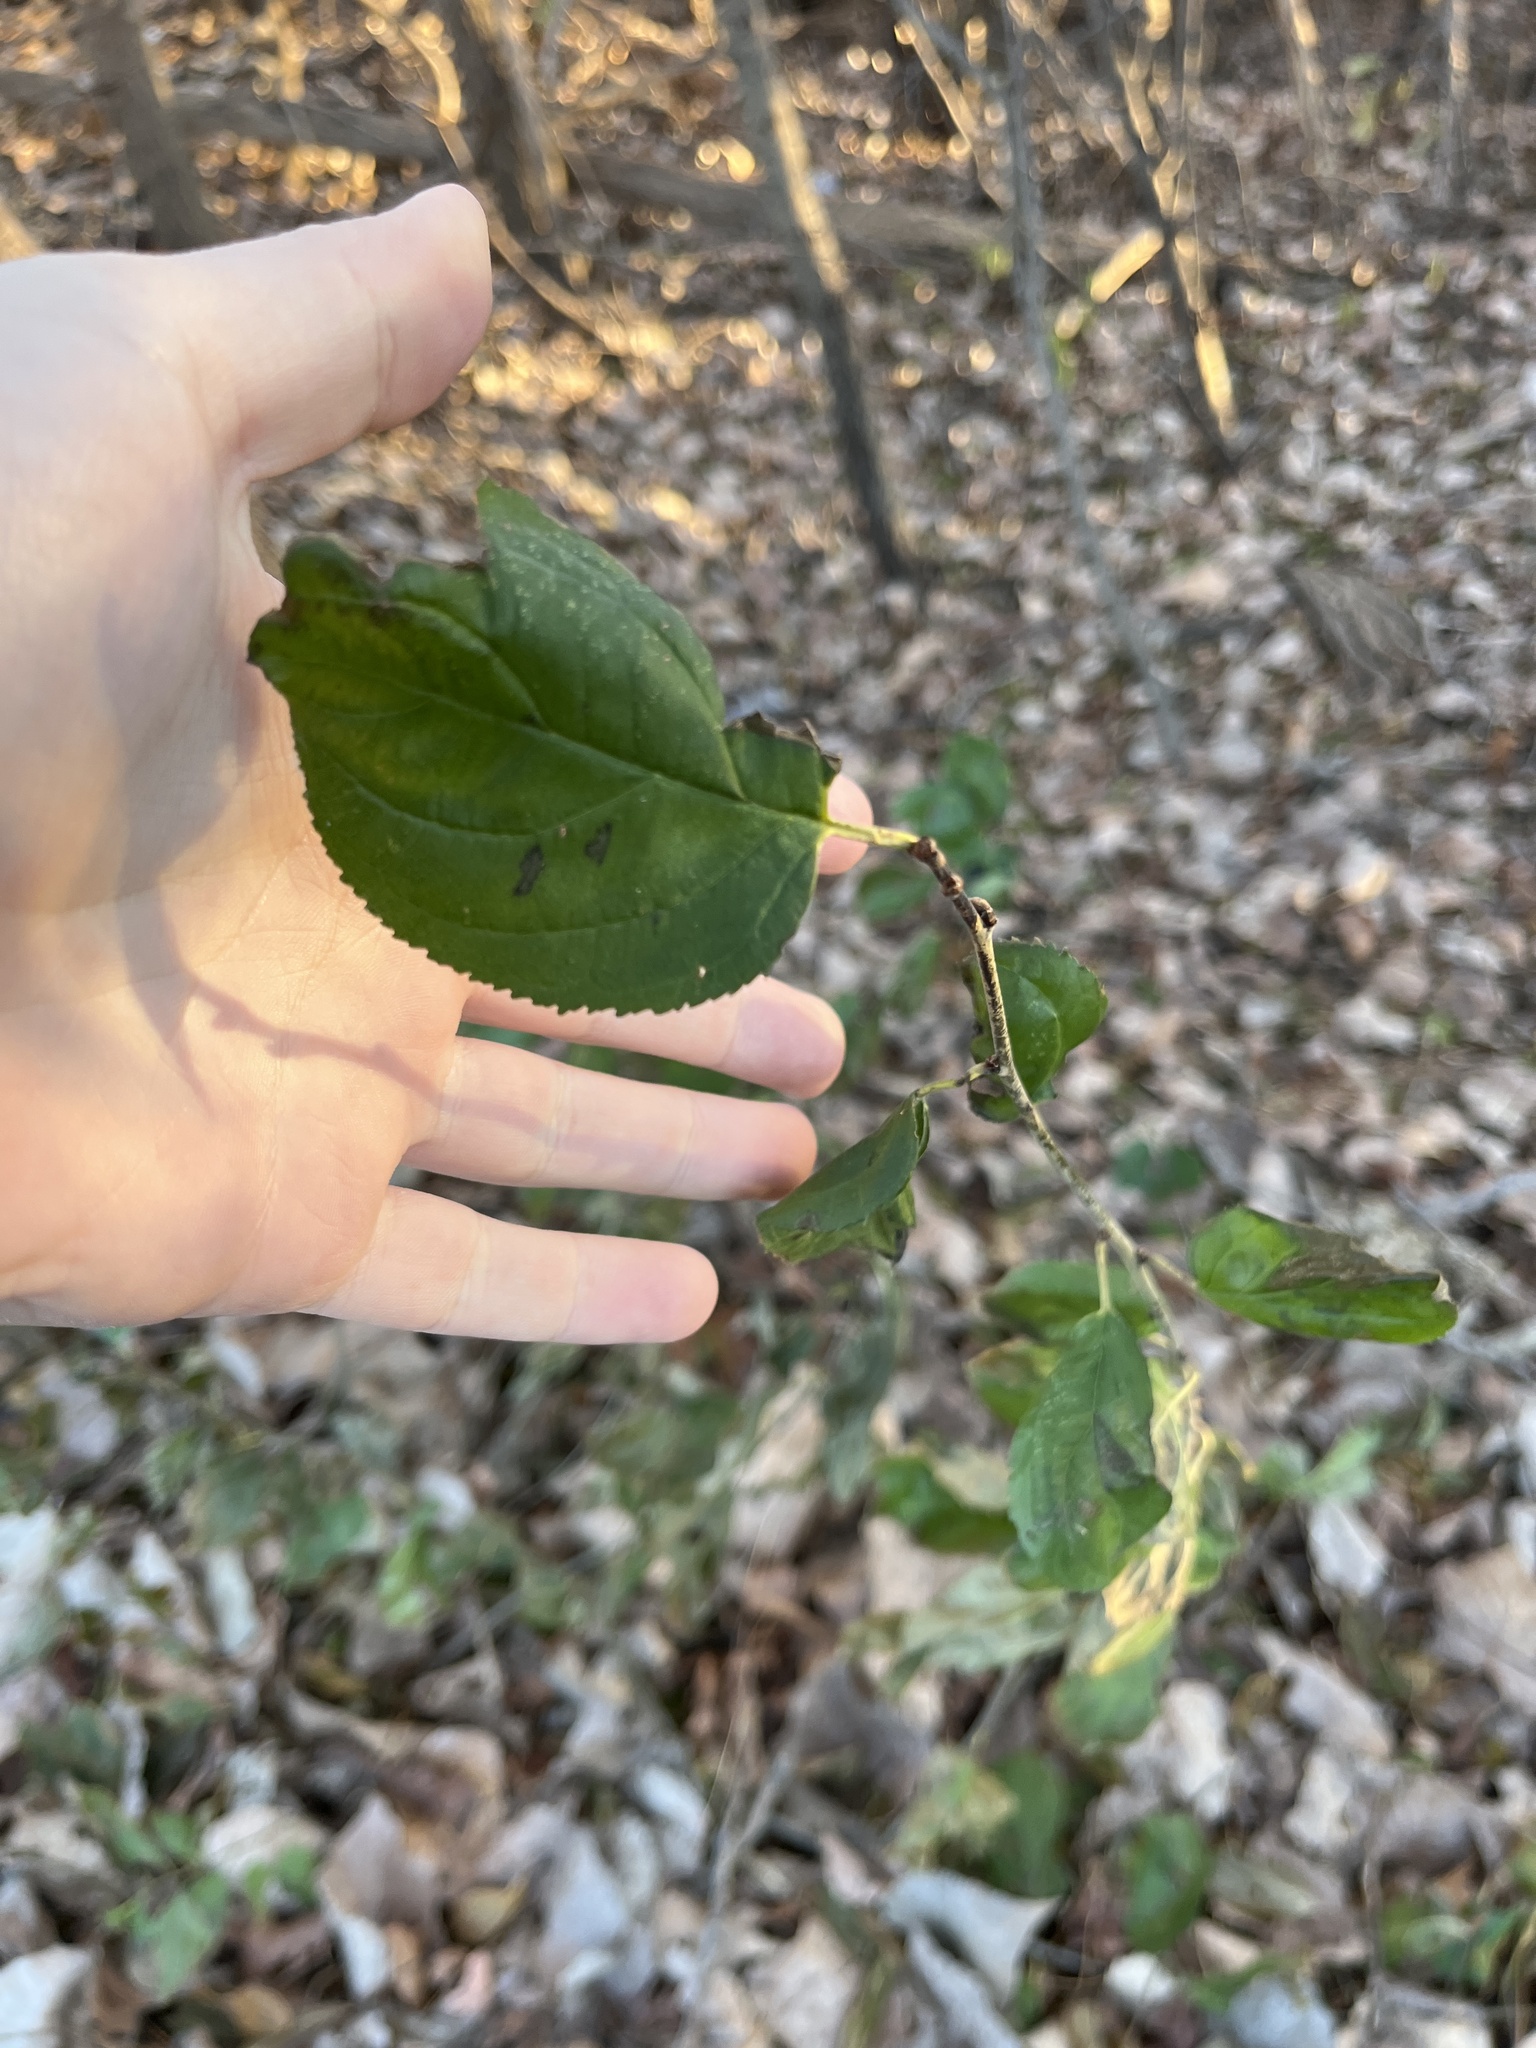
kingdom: Plantae
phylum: Tracheophyta
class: Magnoliopsida
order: Rosales
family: Rhamnaceae
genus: Rhamnus
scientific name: Rhamnus cathartica
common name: Common buckthorn
